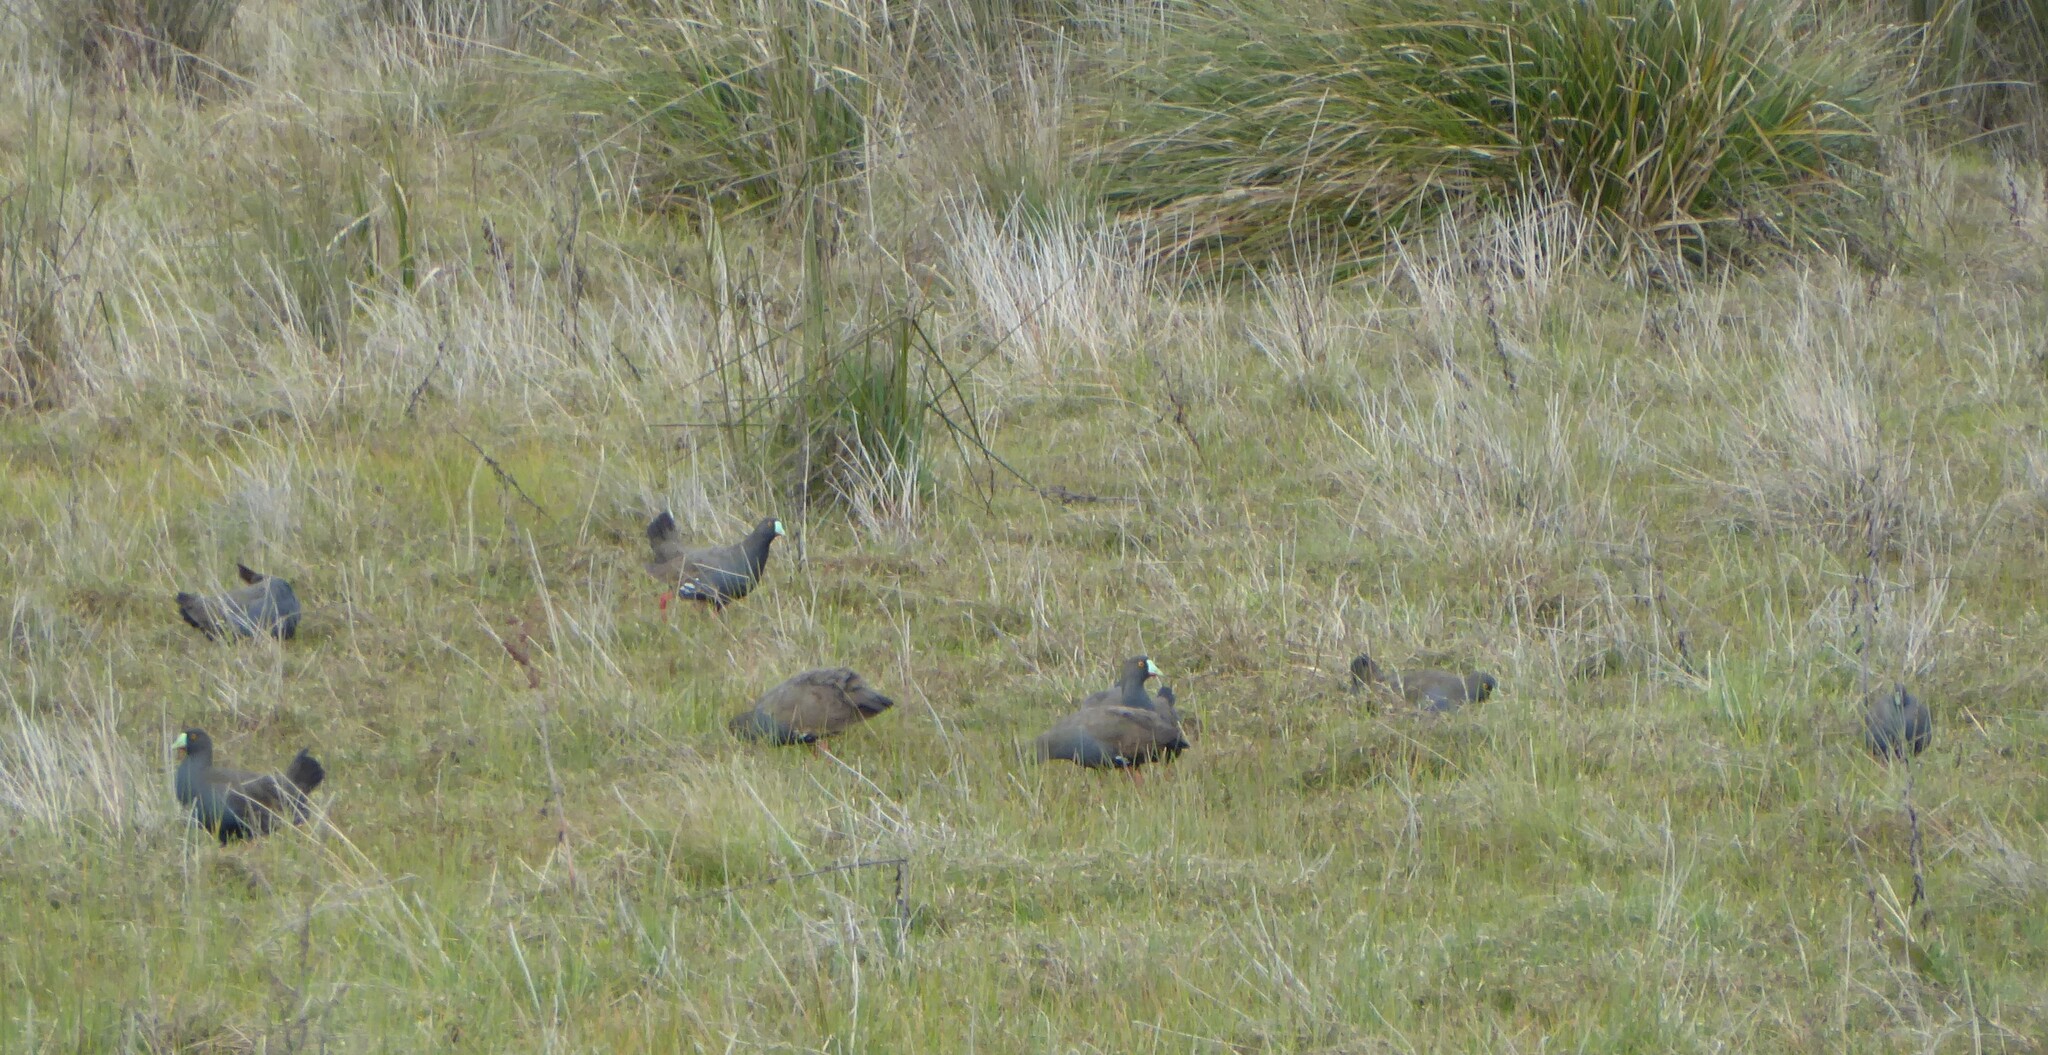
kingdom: Animalia
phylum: Chordata
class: Aves
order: Gruiformes
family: Rallidae
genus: Gallinula
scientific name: Gallinula ventralis
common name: Black-tailed nativehen
